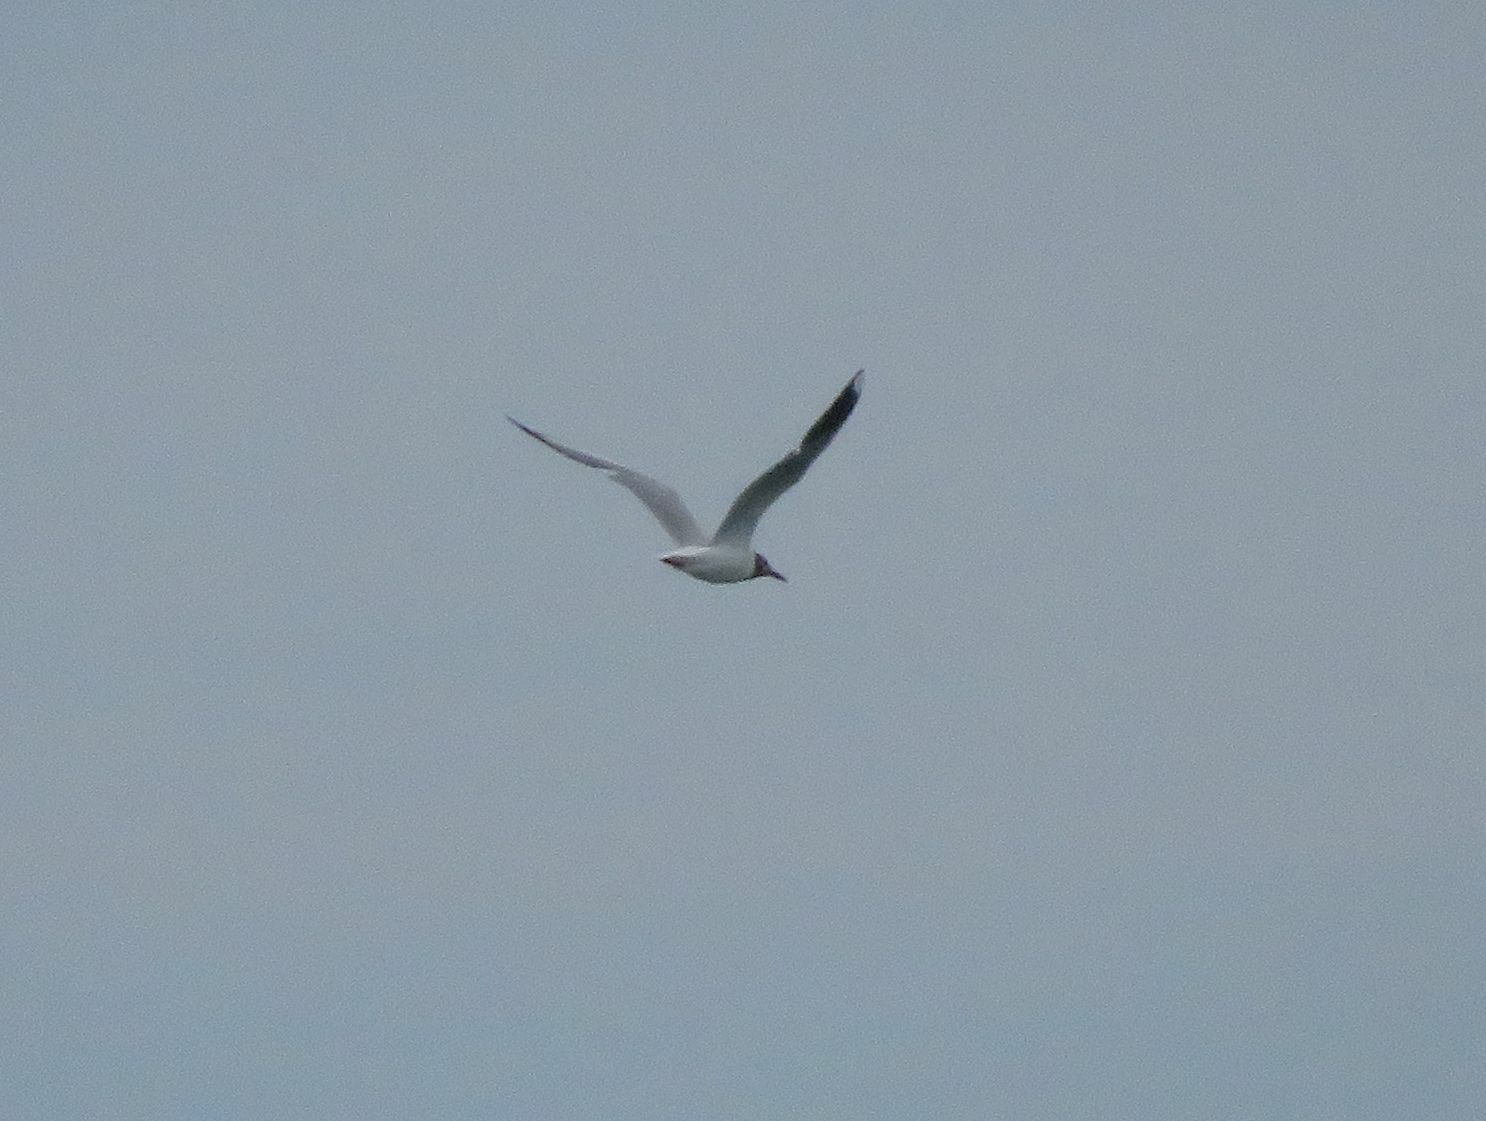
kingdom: Animalia
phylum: Chordata
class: Aves
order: Charadriiformes
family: Laridae
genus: Chroicocephalus
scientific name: Chroicocephalus maculipennis
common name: Brown-hooded gull
